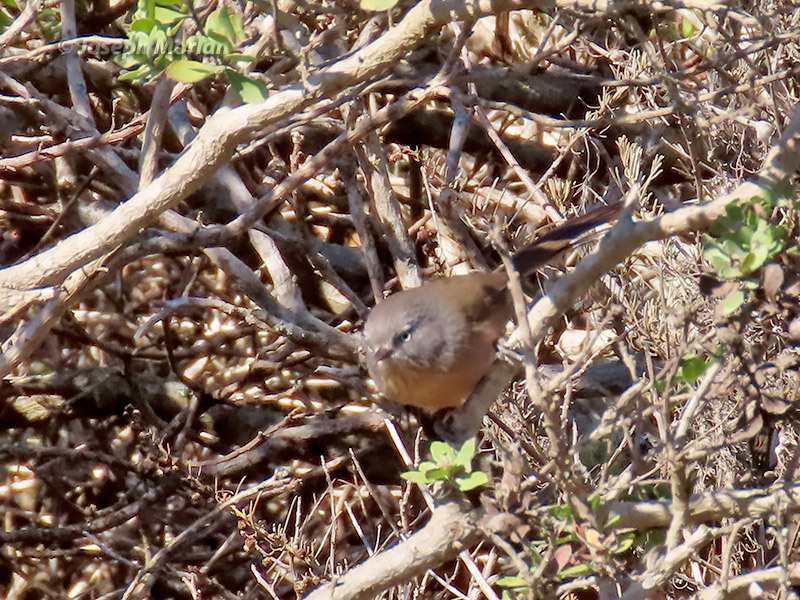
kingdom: Animalia
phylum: Chordata
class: Aves
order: Passeriformes
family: Sylviidae
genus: Chamaea
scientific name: Chamaea fasciata
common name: Wrentit
